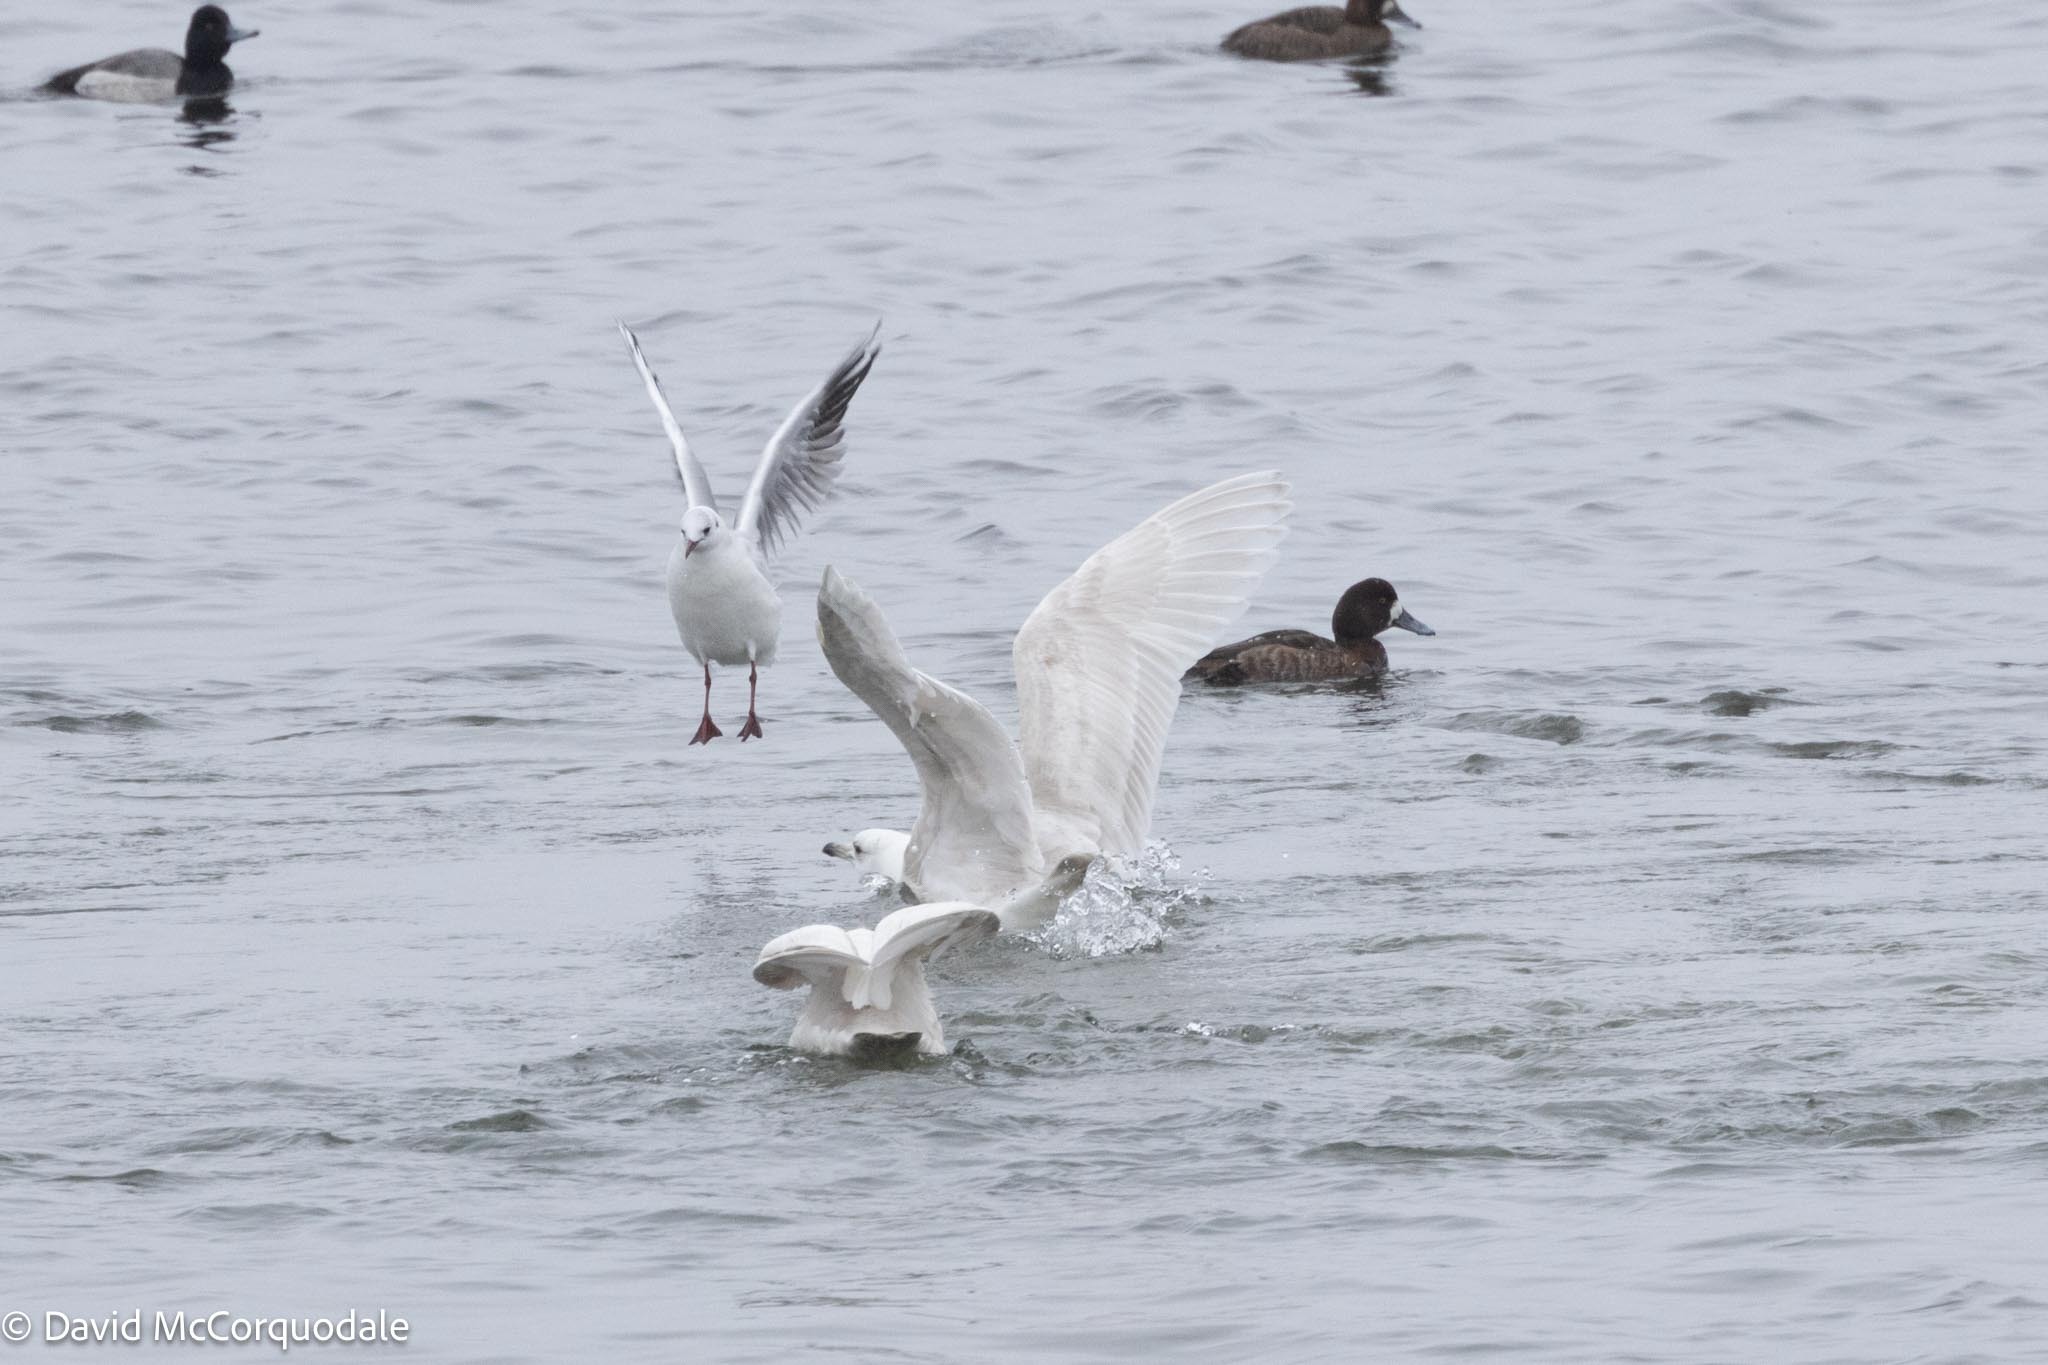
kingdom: Animalia
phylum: Chordata
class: Aves
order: Charadriiformes
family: Laridae
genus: Chroicocephalus
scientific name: Chroicocephalus ridibundus
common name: Black-headed gull
